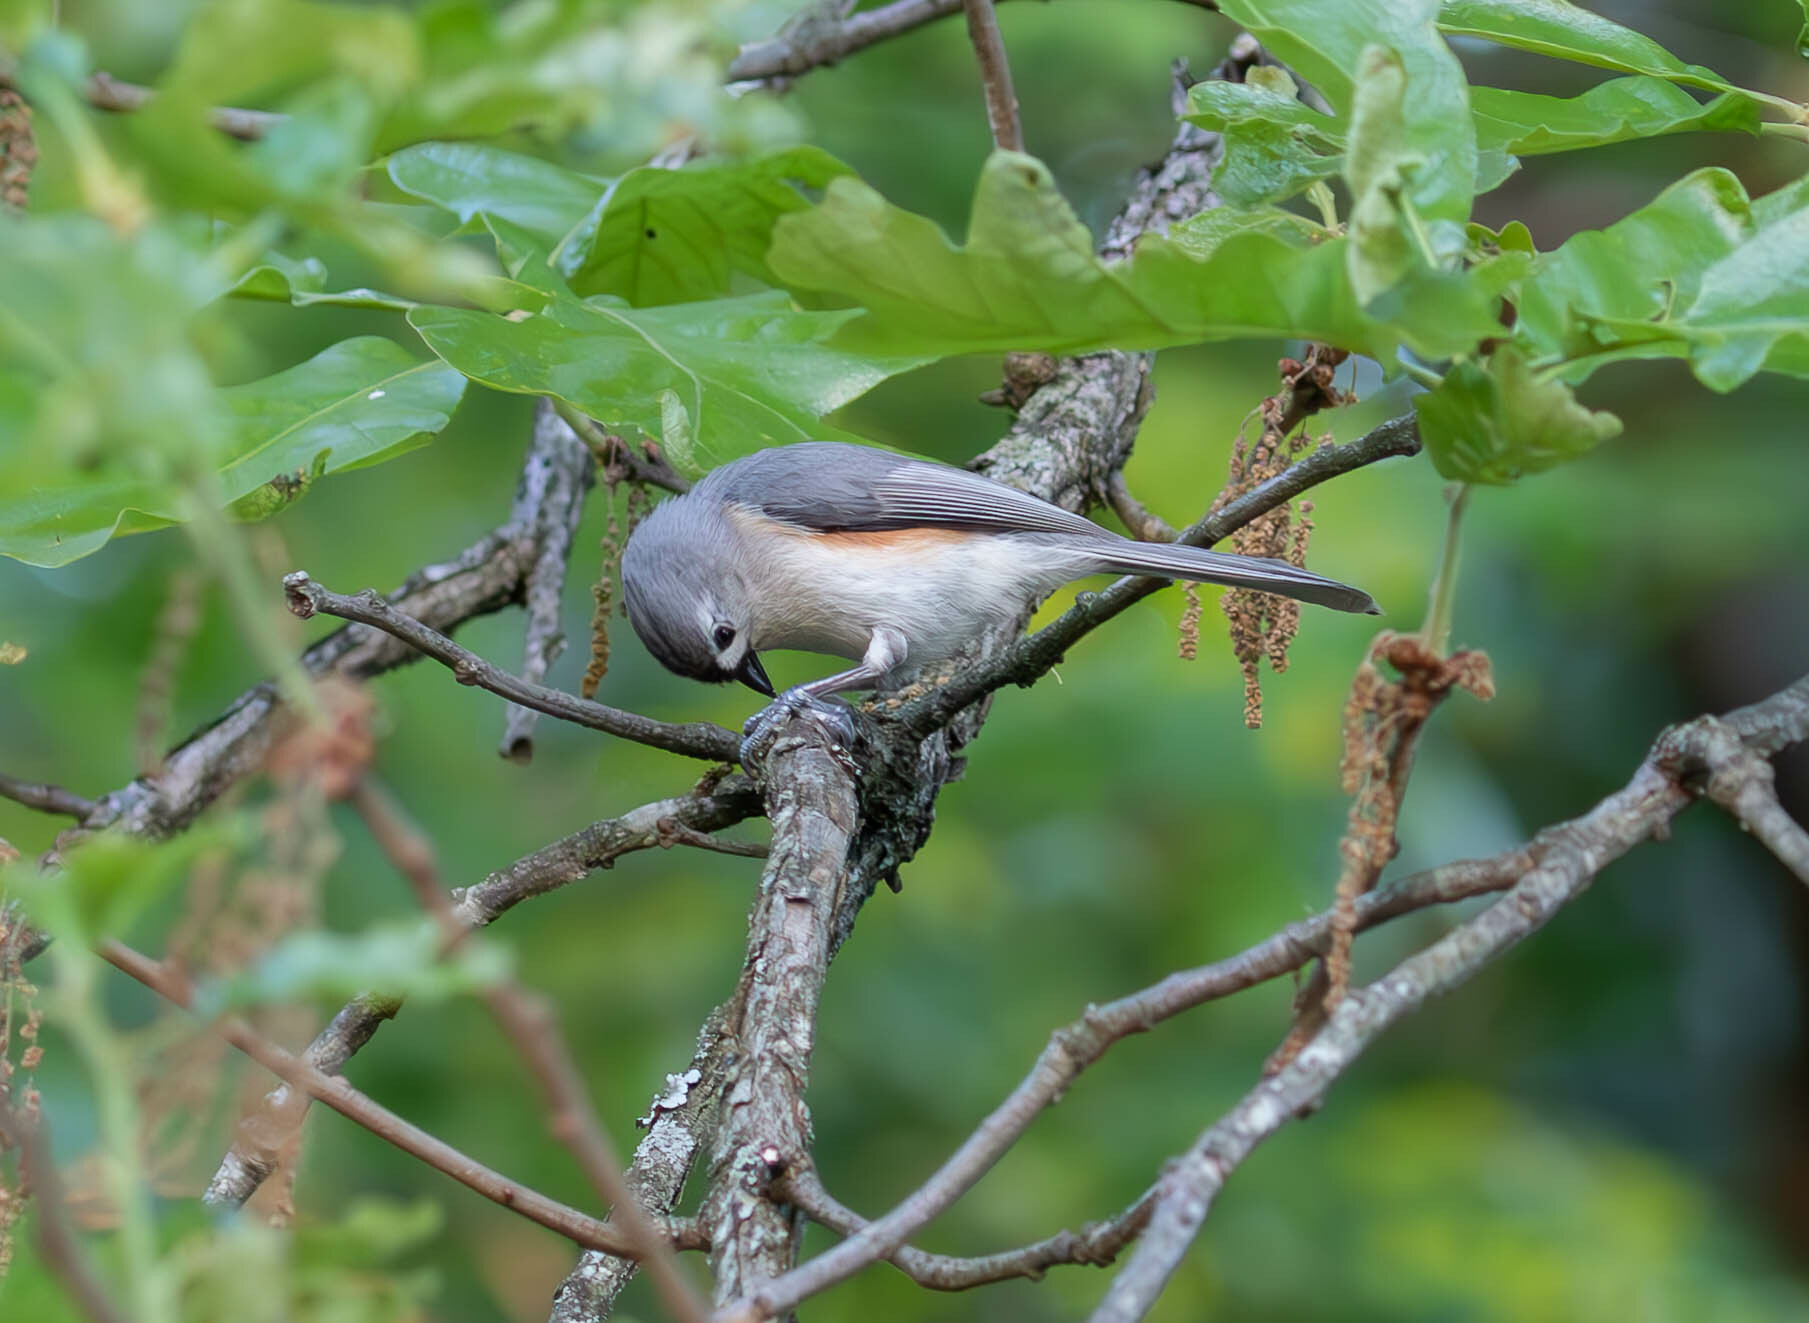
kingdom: Animalia
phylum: Chordata
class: Aves
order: Passeriformes
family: Paridae
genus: Baeolophus
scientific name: Baeolophus bicolor
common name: Tufted titmouse
